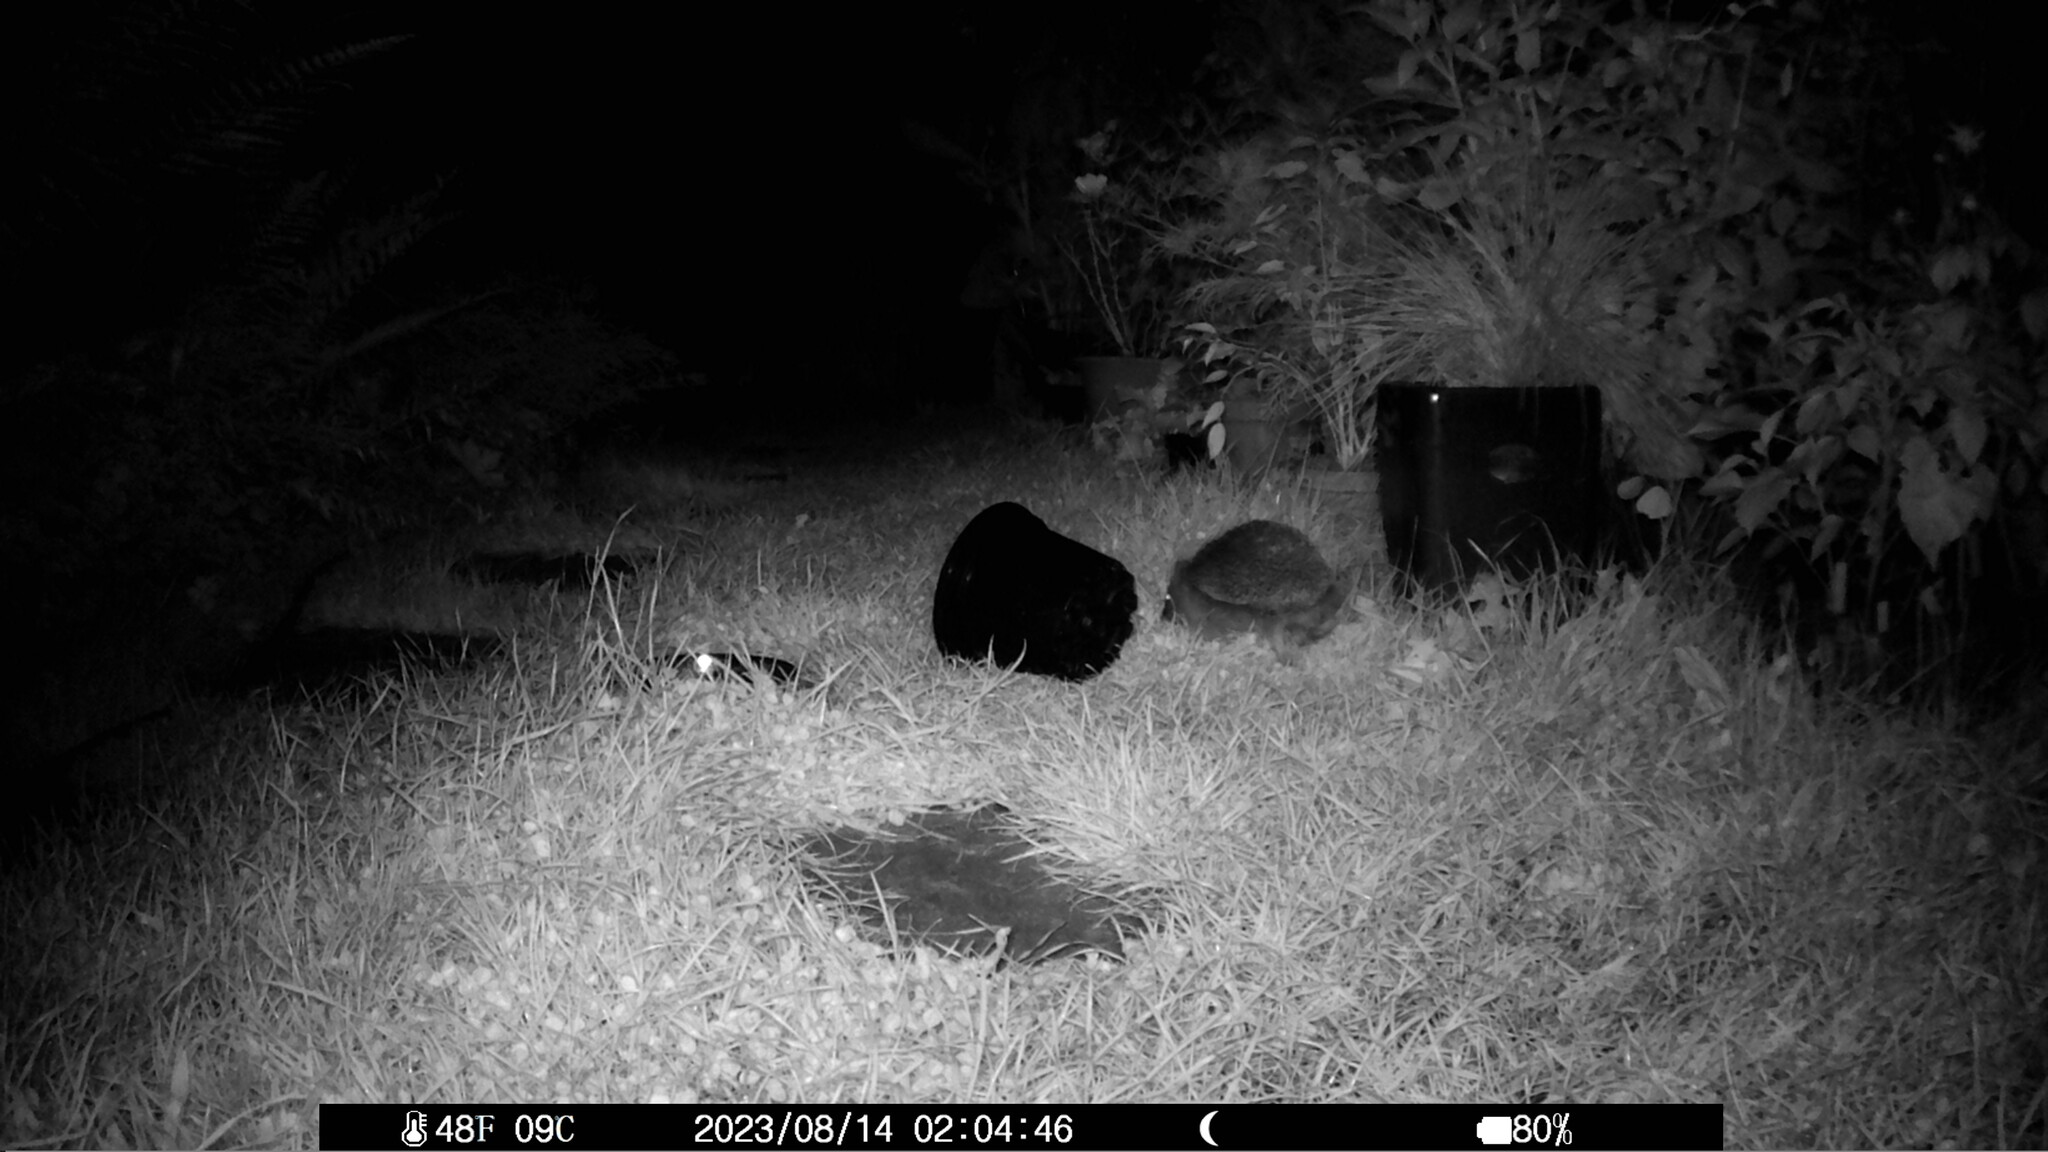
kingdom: Animalia
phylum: Chordata
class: Mammalia
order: Erinaceomorpha
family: Erinaceidae
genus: Erinaceus
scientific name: Erinaceus europaeus
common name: West european hedgehog
